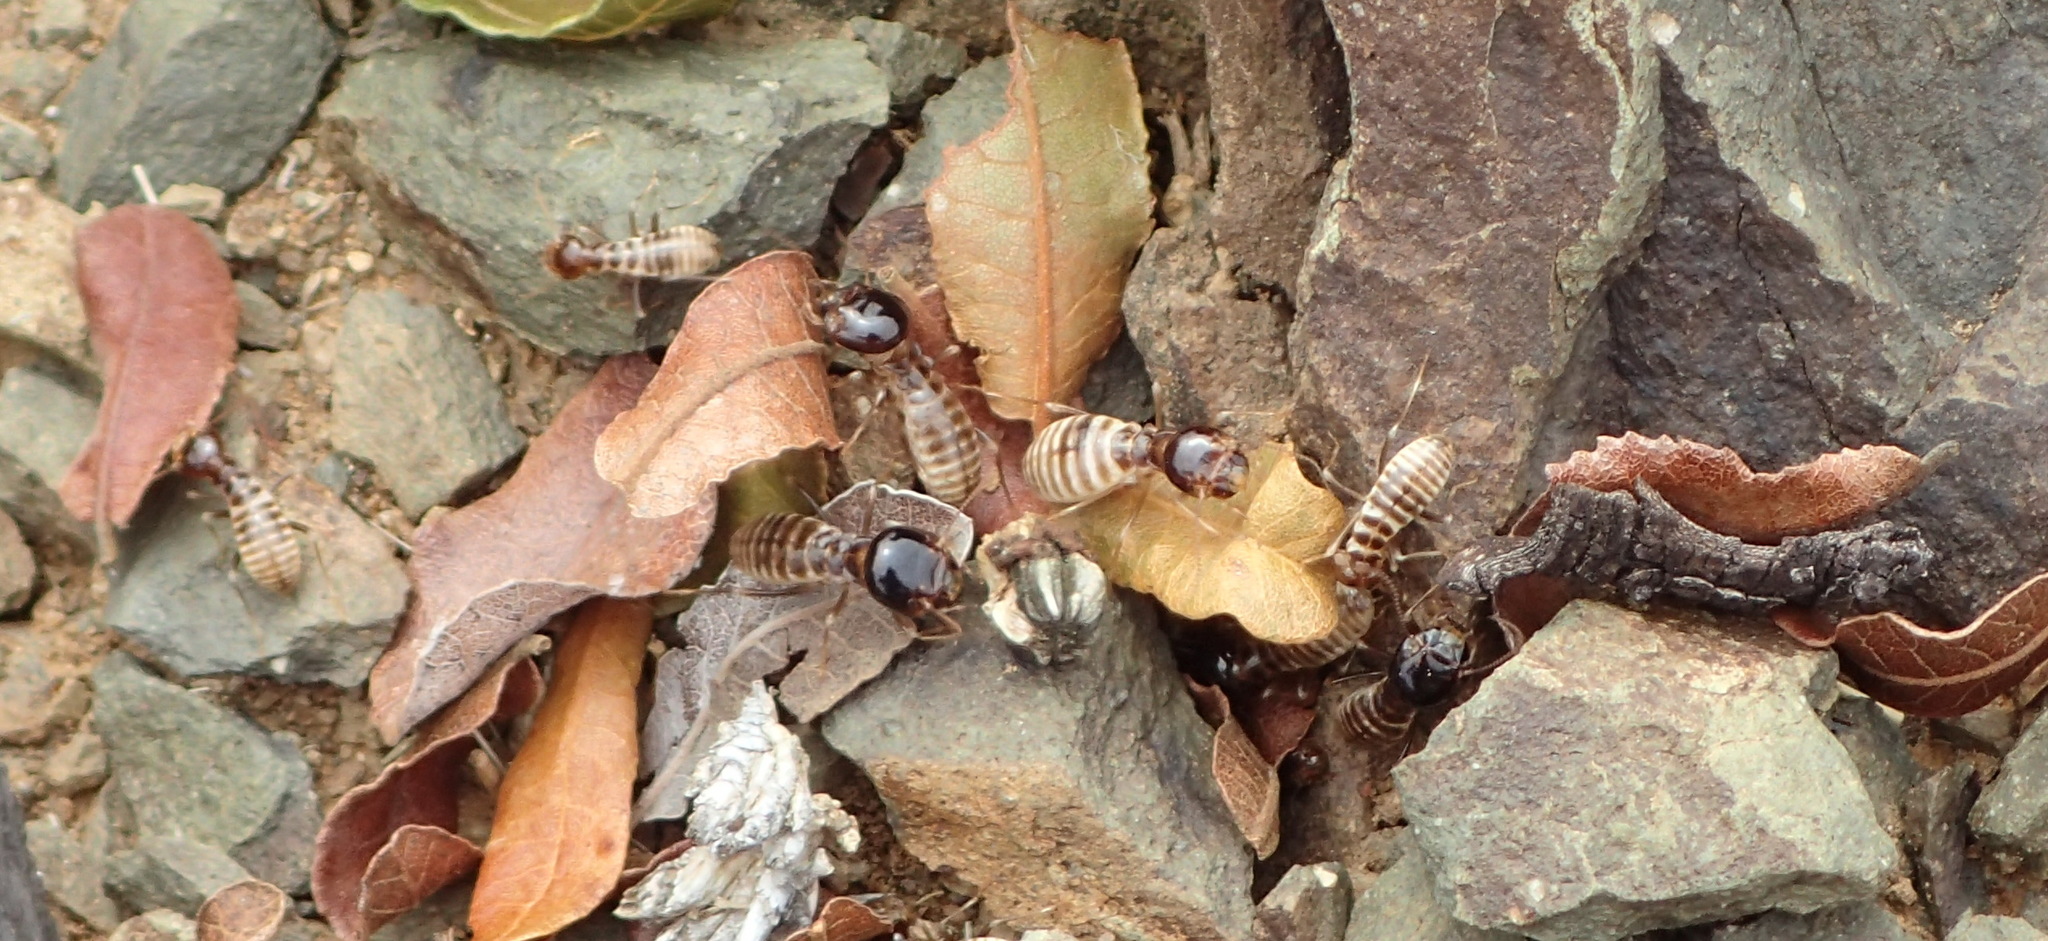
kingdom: Animalia
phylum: Arthropoda
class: Insecta
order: Blattodea
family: Hodotermitidae
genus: Microhodotermes
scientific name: Microhodotermes viator
